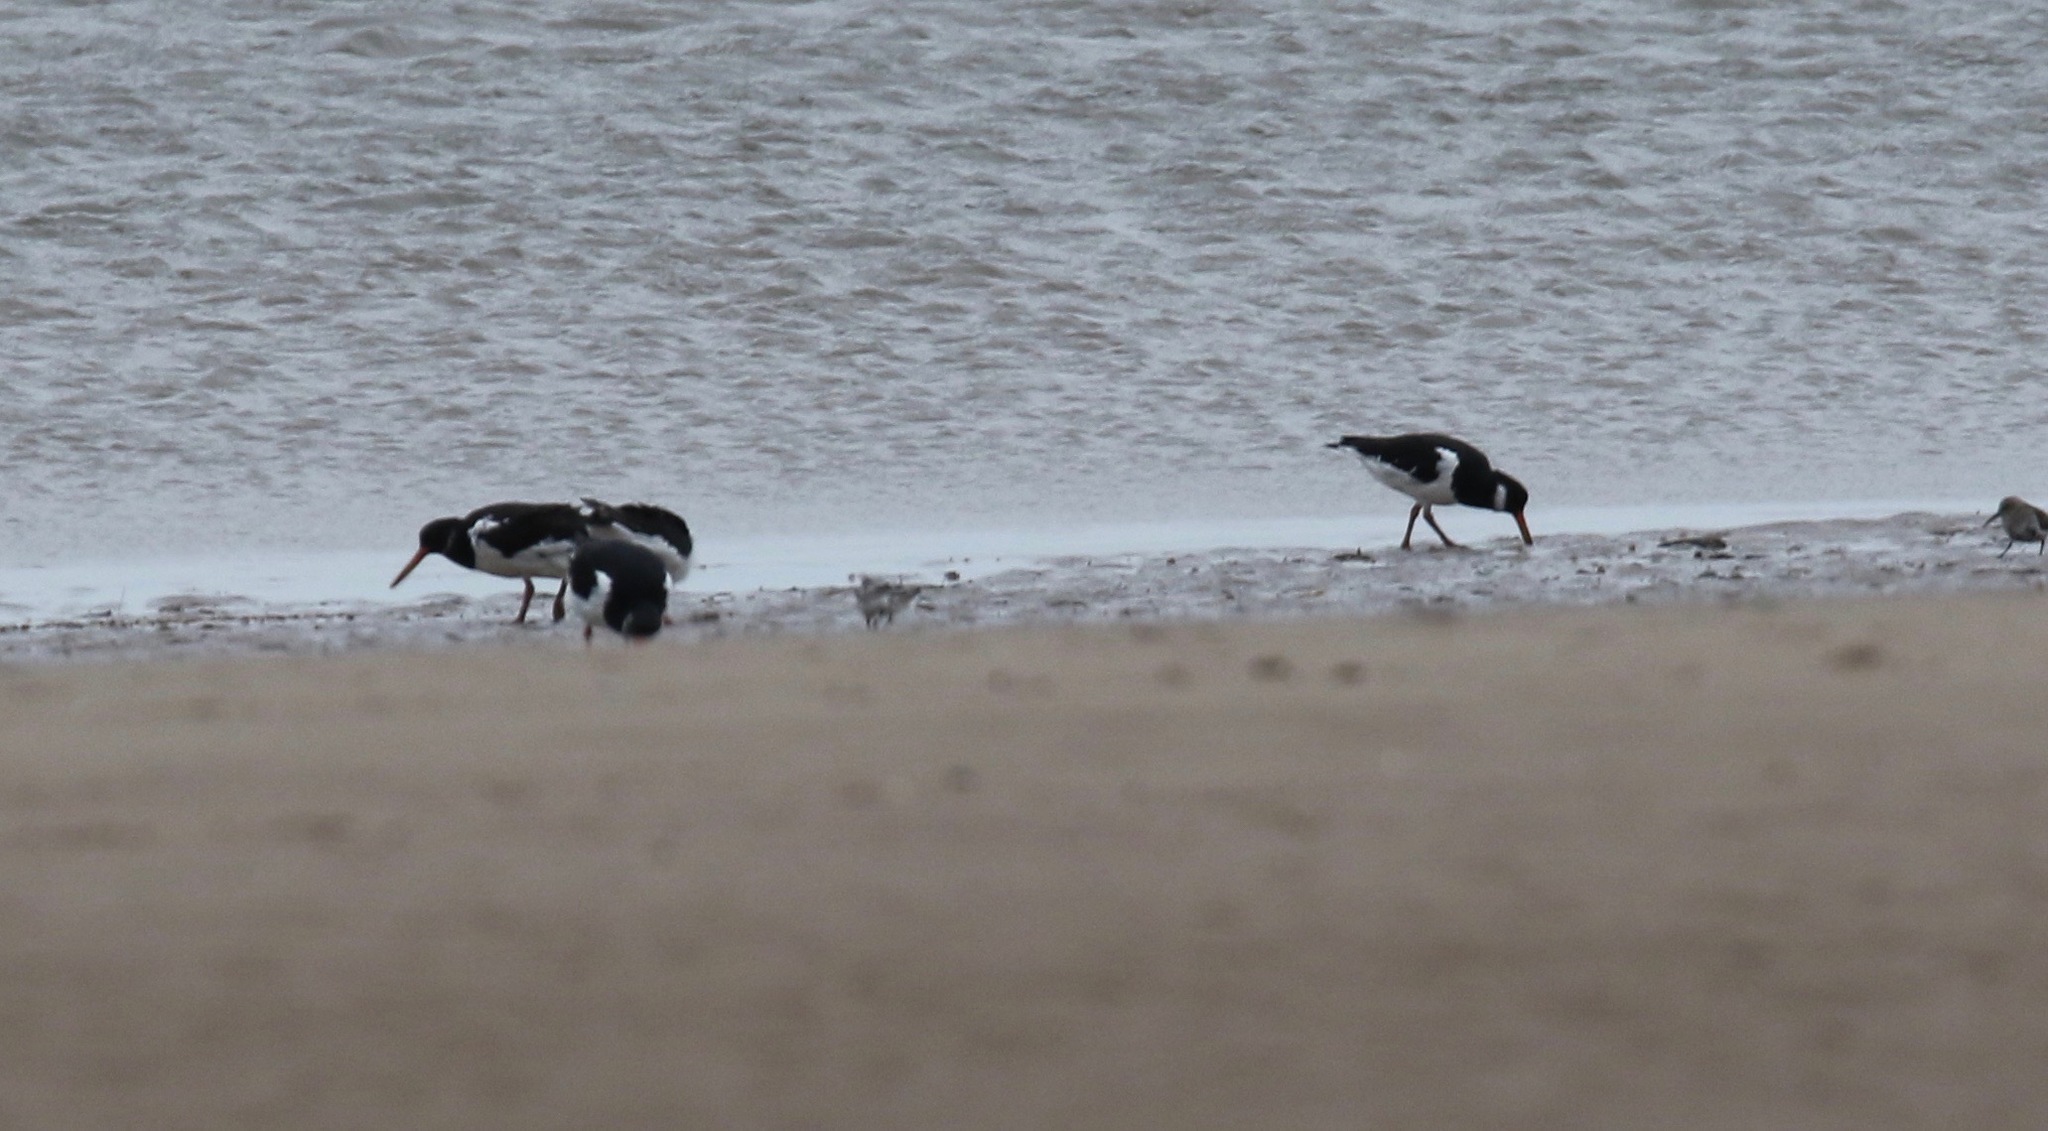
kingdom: Animalia
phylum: Chordata
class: Aves
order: Charadriiformes
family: Haematopodidae
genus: Haematopus
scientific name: Haematopus ostralegus
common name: Eurasian oystercatcher
